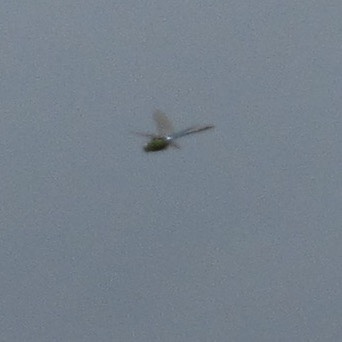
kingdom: Animalia
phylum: Arthropoda
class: Insecta
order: Odonata
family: Aeshnidae
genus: Anax
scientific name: Anax junius
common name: Common green darner
